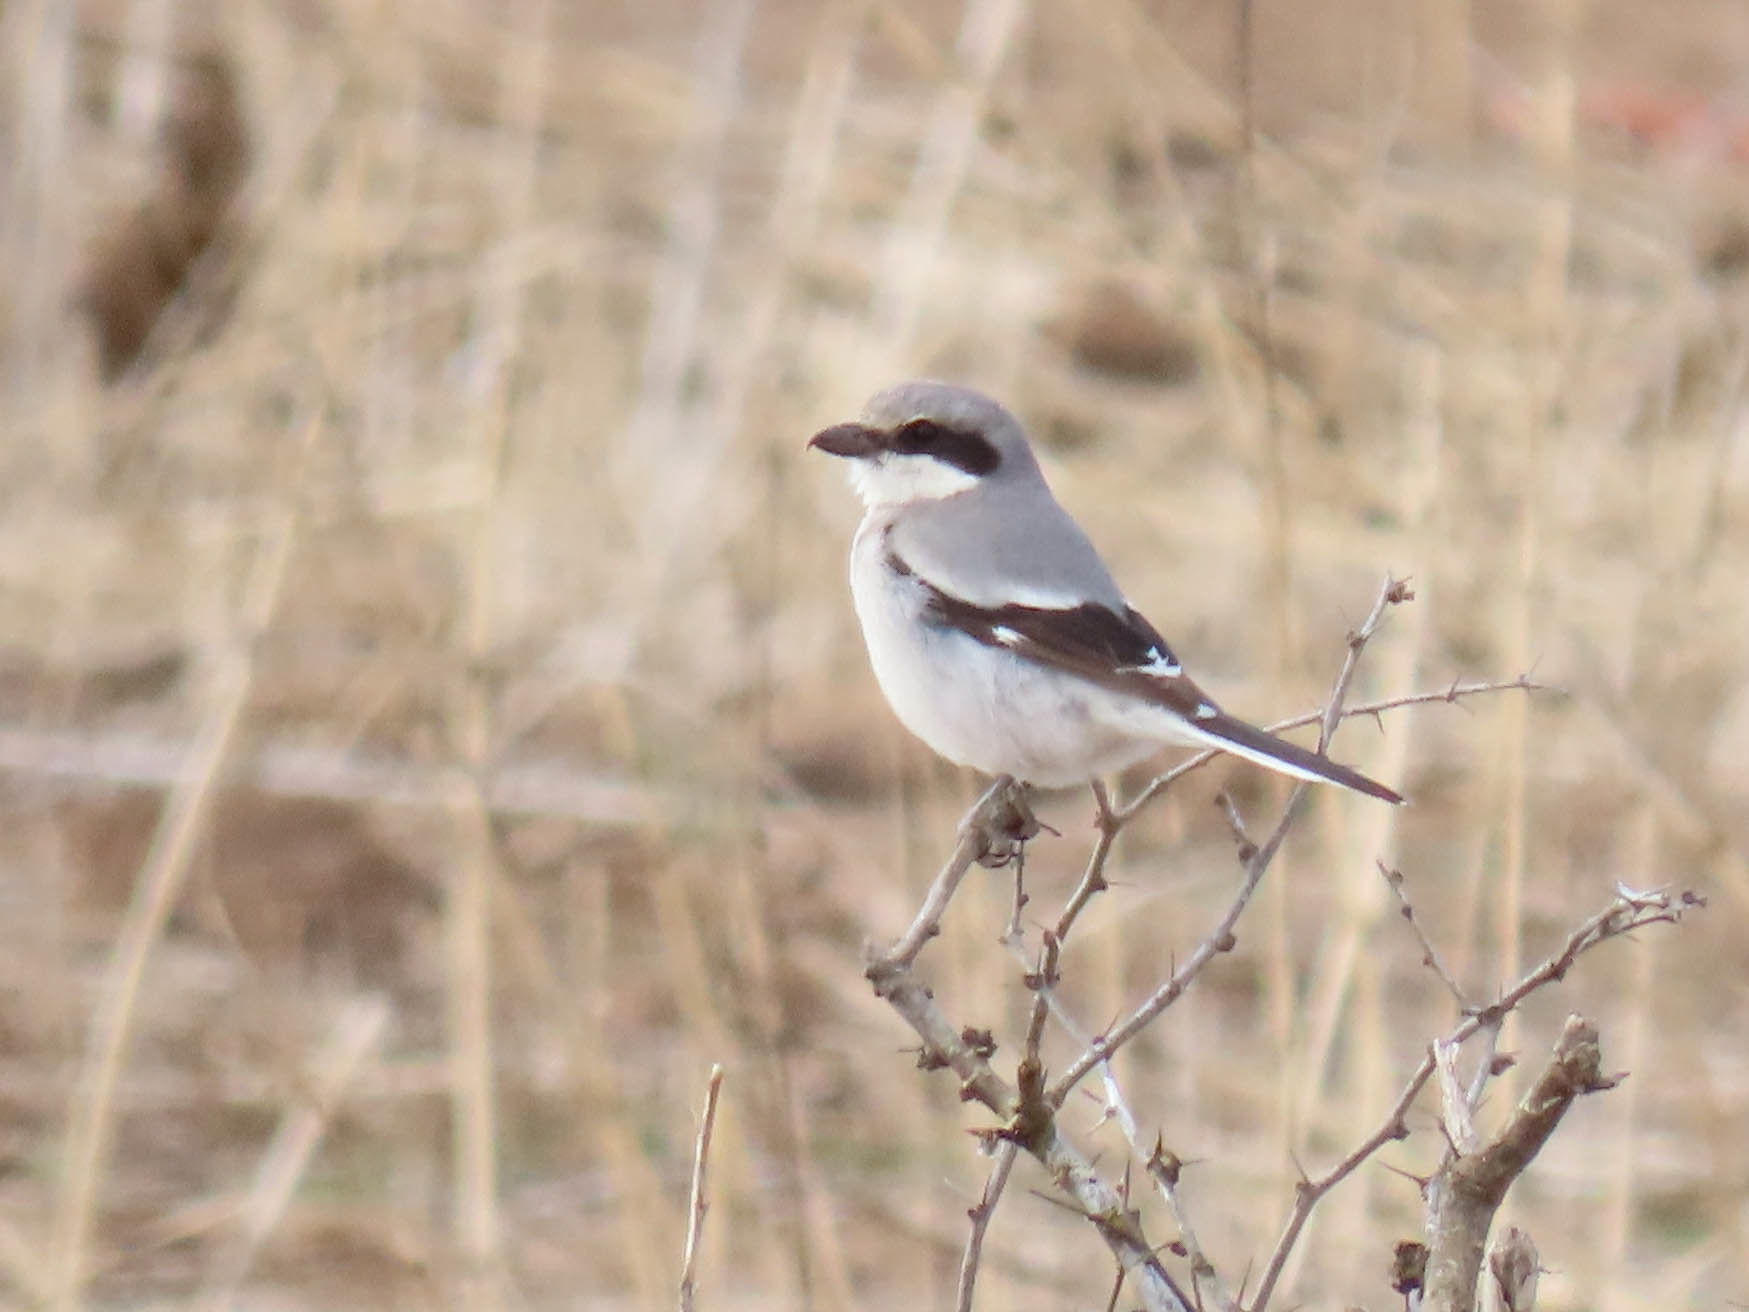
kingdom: Animalia
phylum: Chordata
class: Aves
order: Passeriformes
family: Laniidae
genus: Lanius
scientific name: Lanius ludovicianus
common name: Loggerhead shrike
